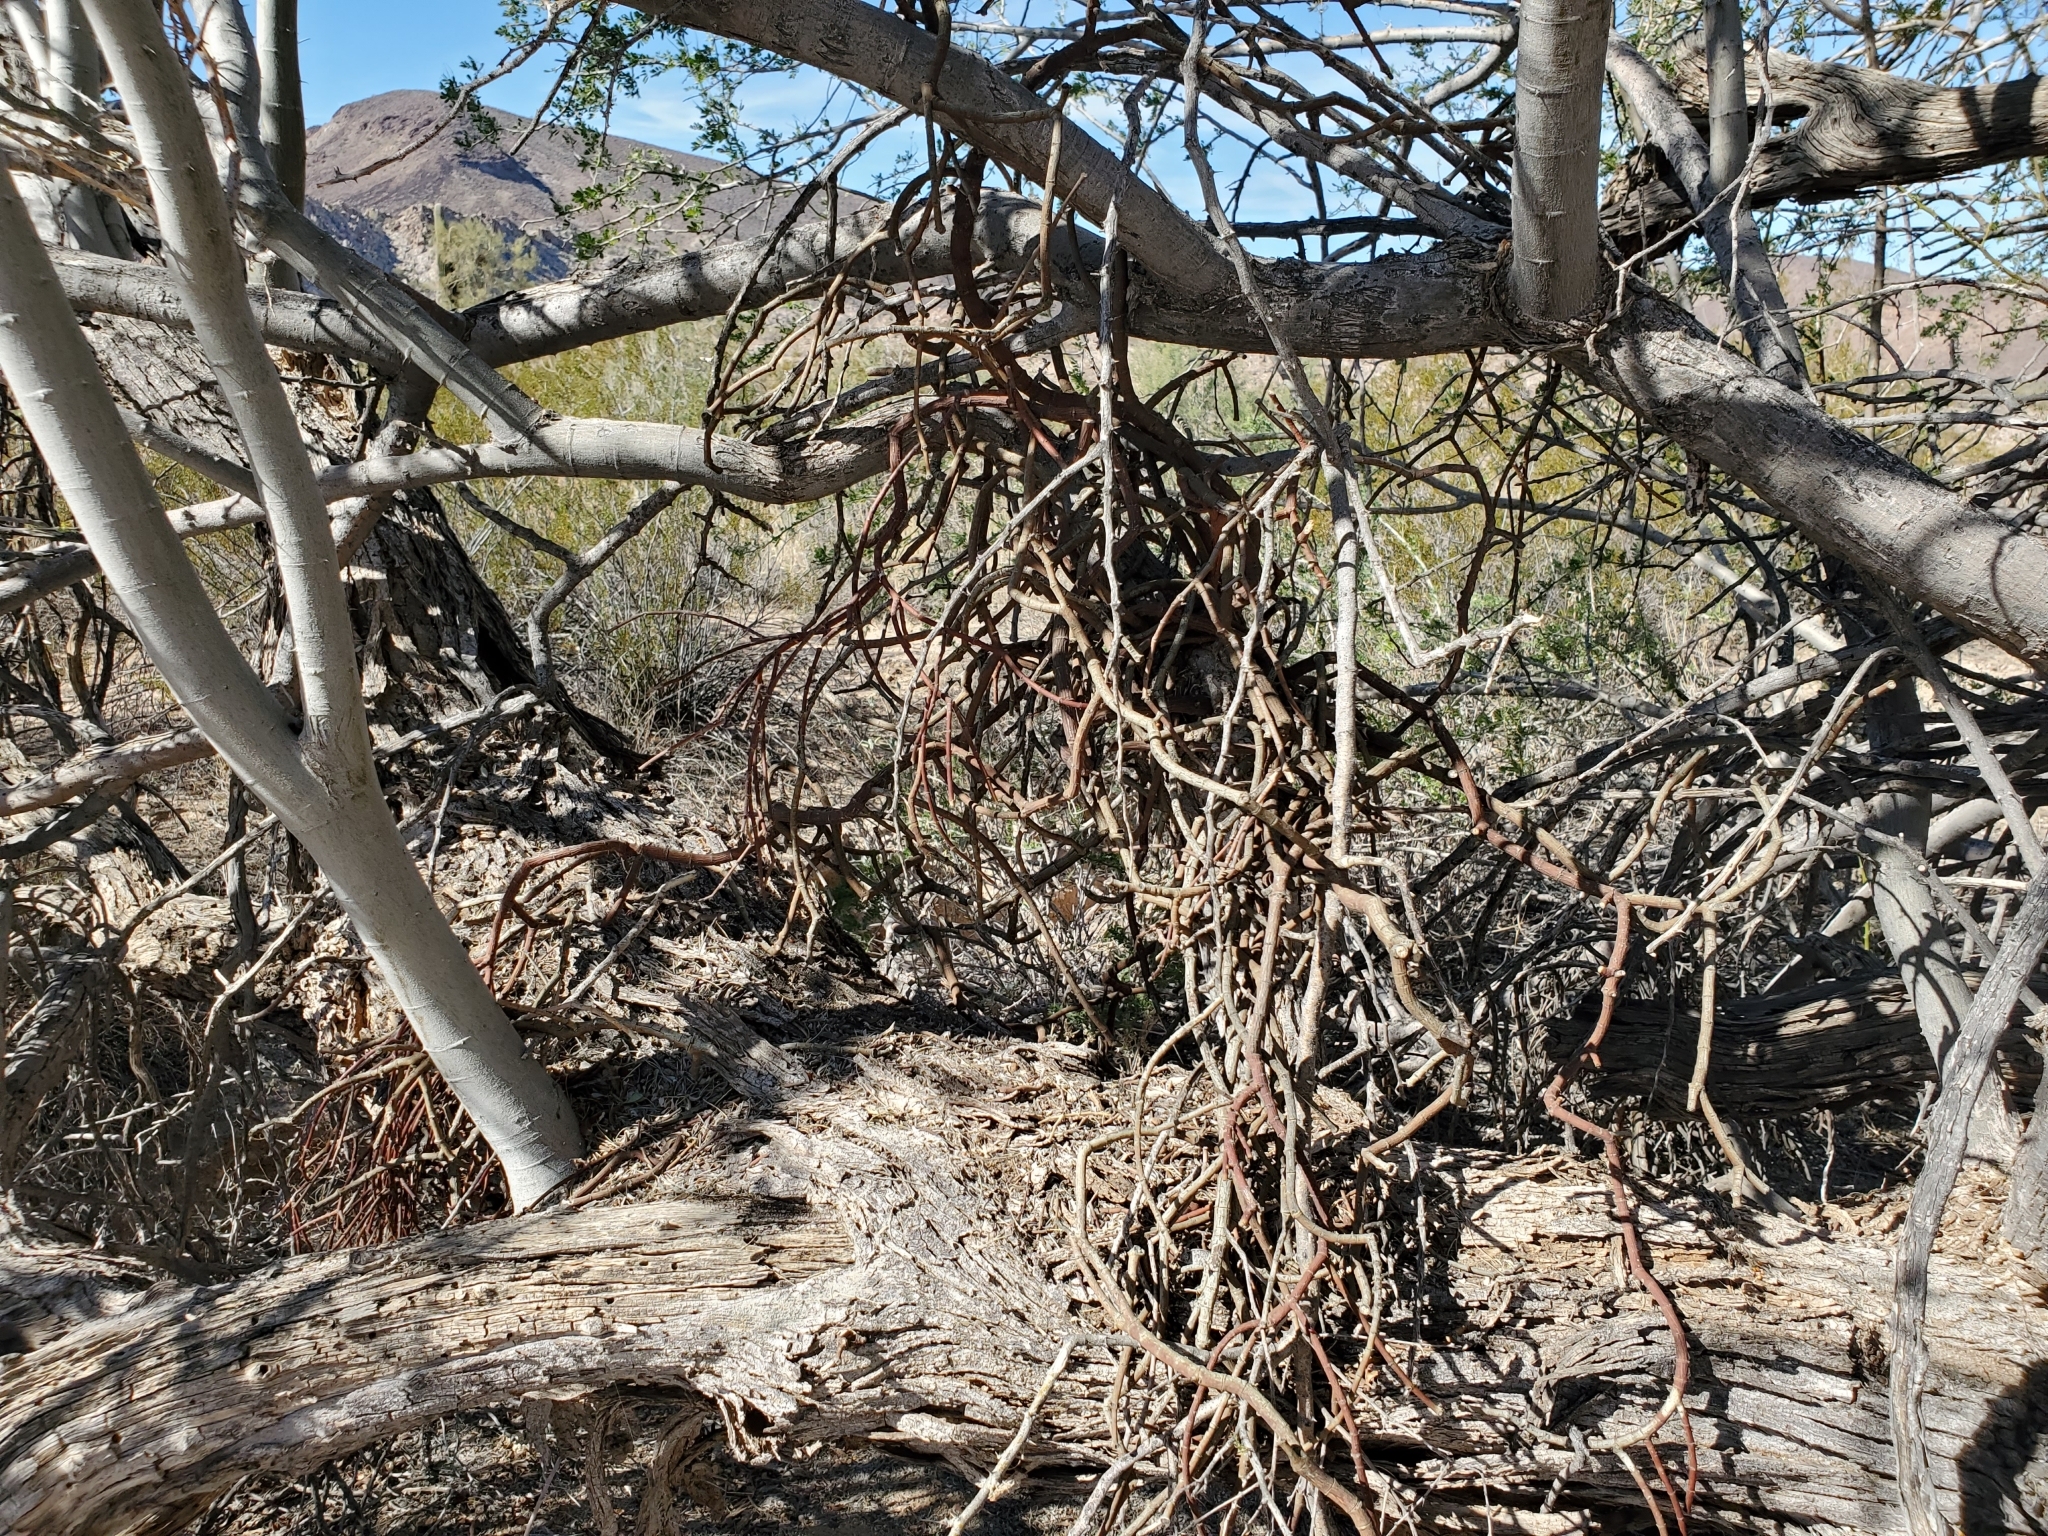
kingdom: Plantae
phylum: Tracheophyta
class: Magnoliopsida
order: Fabales
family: Fabaceae
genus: Olneya
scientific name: Olneya tesota
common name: Desert ironwood
